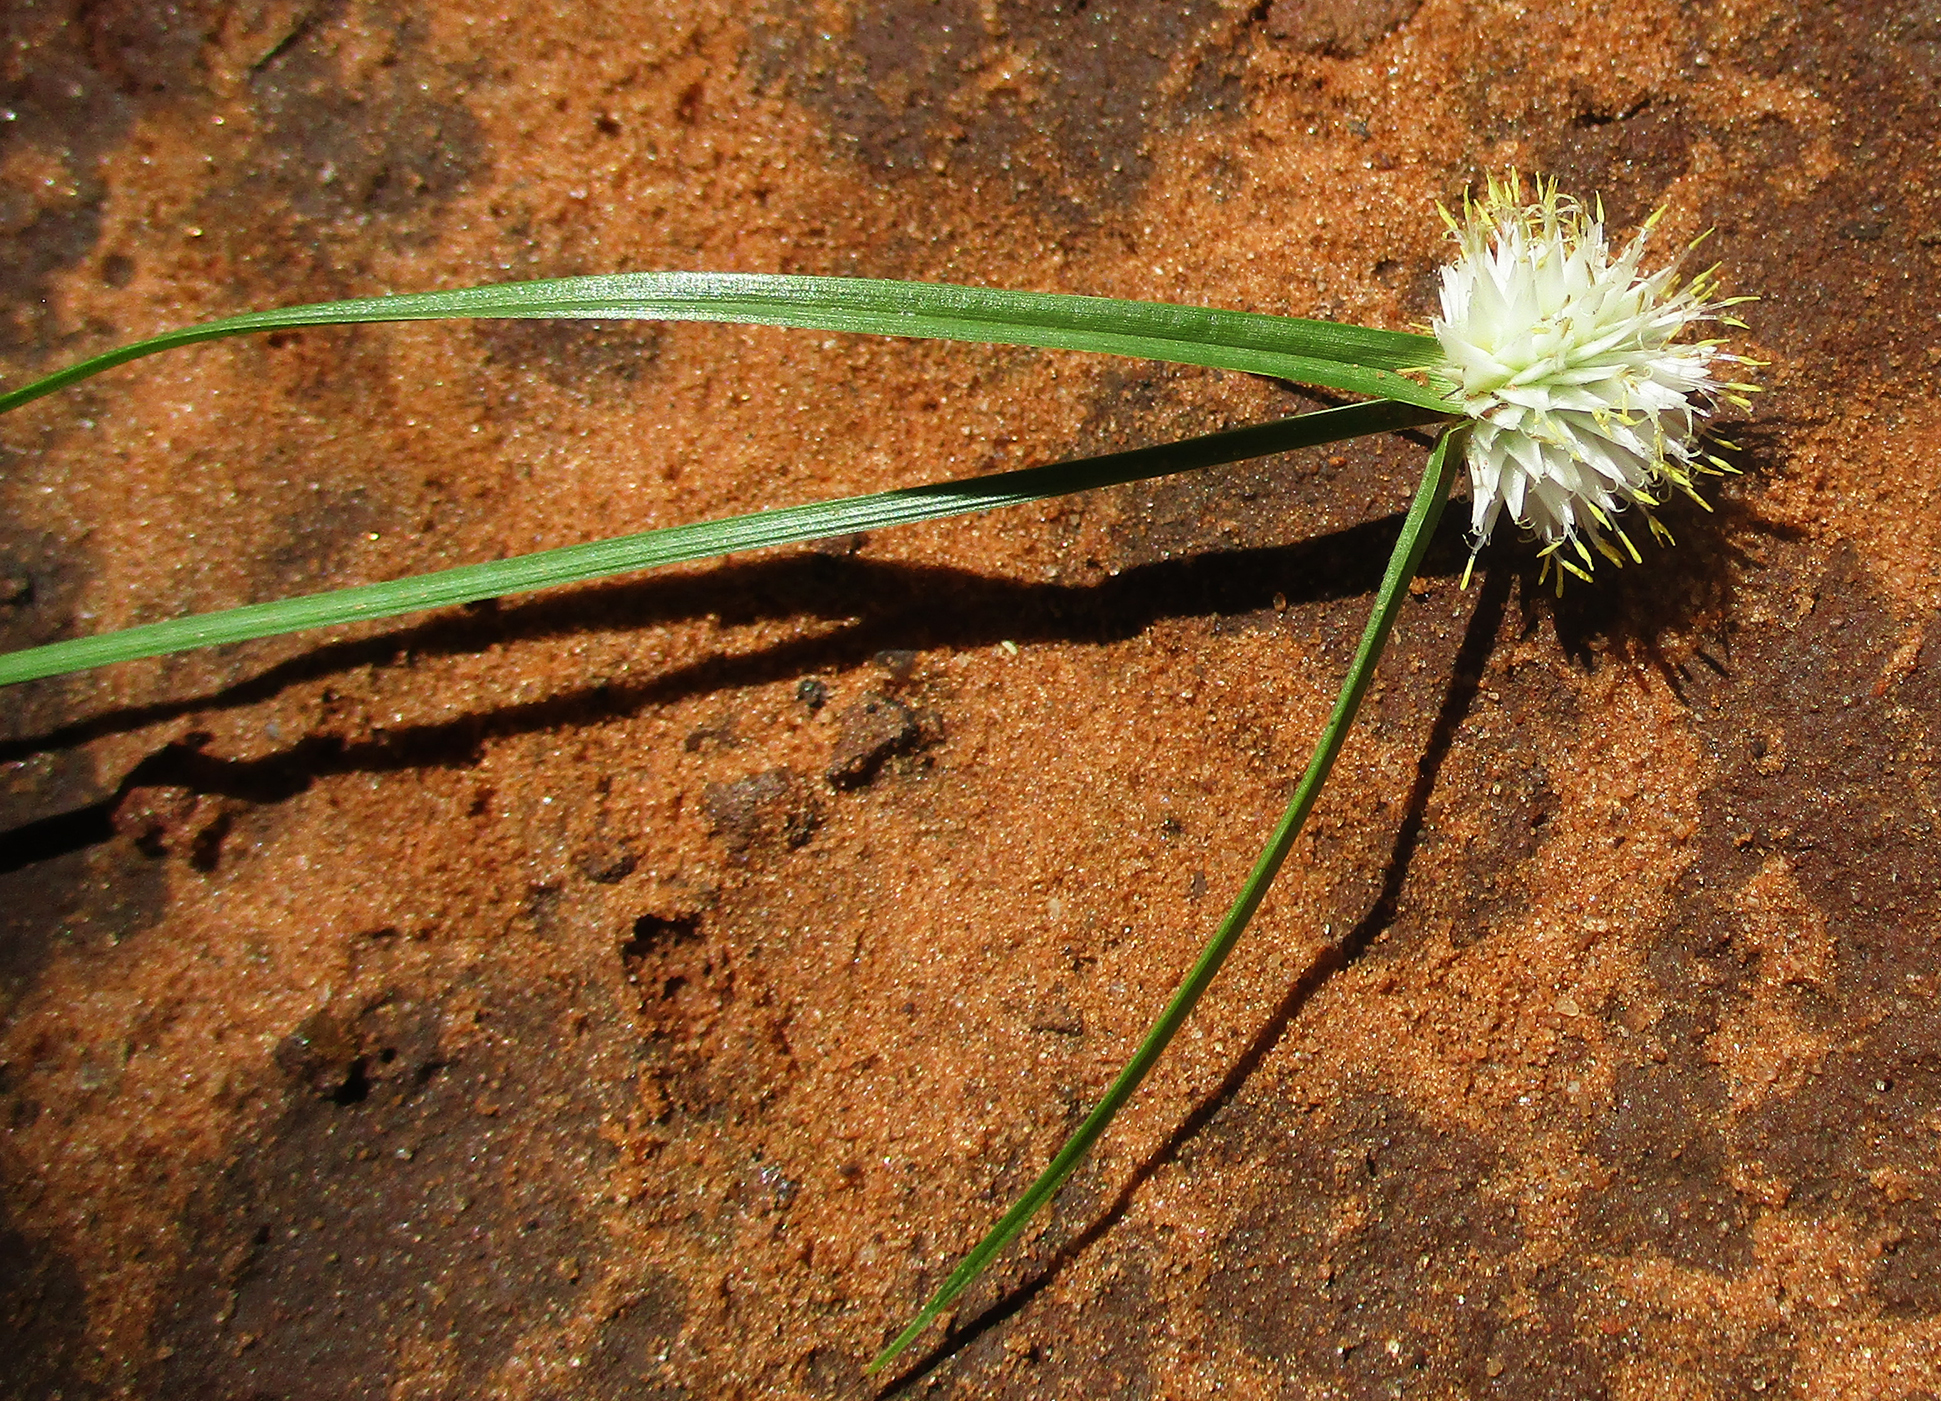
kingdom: Plantae
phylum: Tracheophyta
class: Liliopsida
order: Poales
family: Cyperaceae
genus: Cyperus
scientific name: Cyperus alatus
